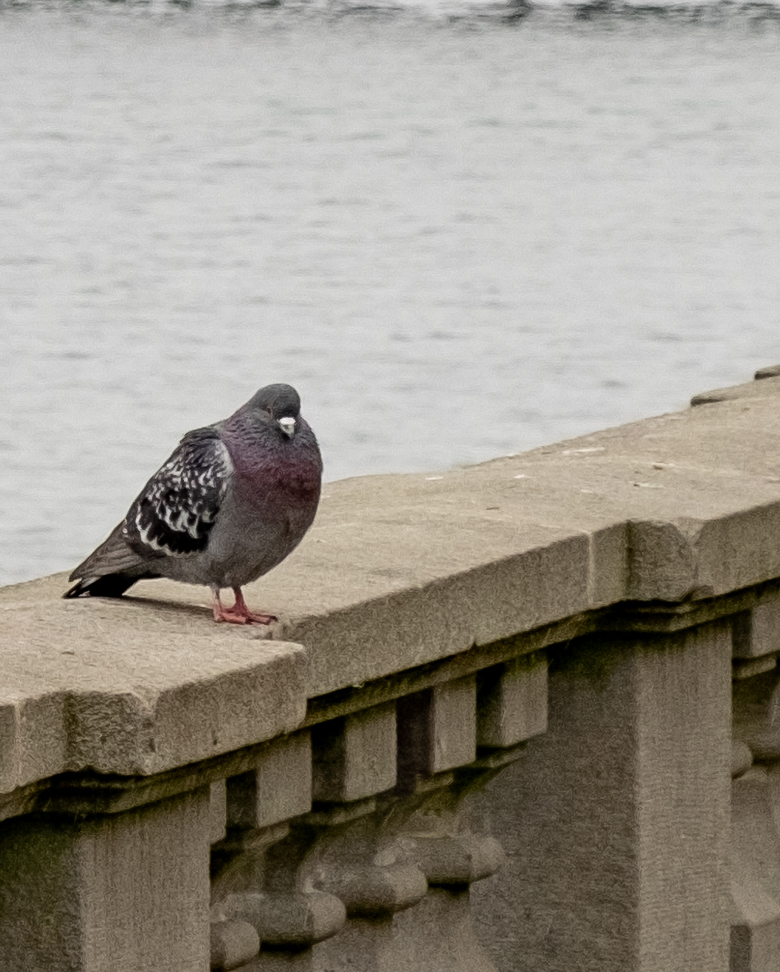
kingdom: Animalia
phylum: Chordata
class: Aves
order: Columbiformes
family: Columbidae
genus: Columba
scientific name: Columba livia
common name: Rock pigeon
